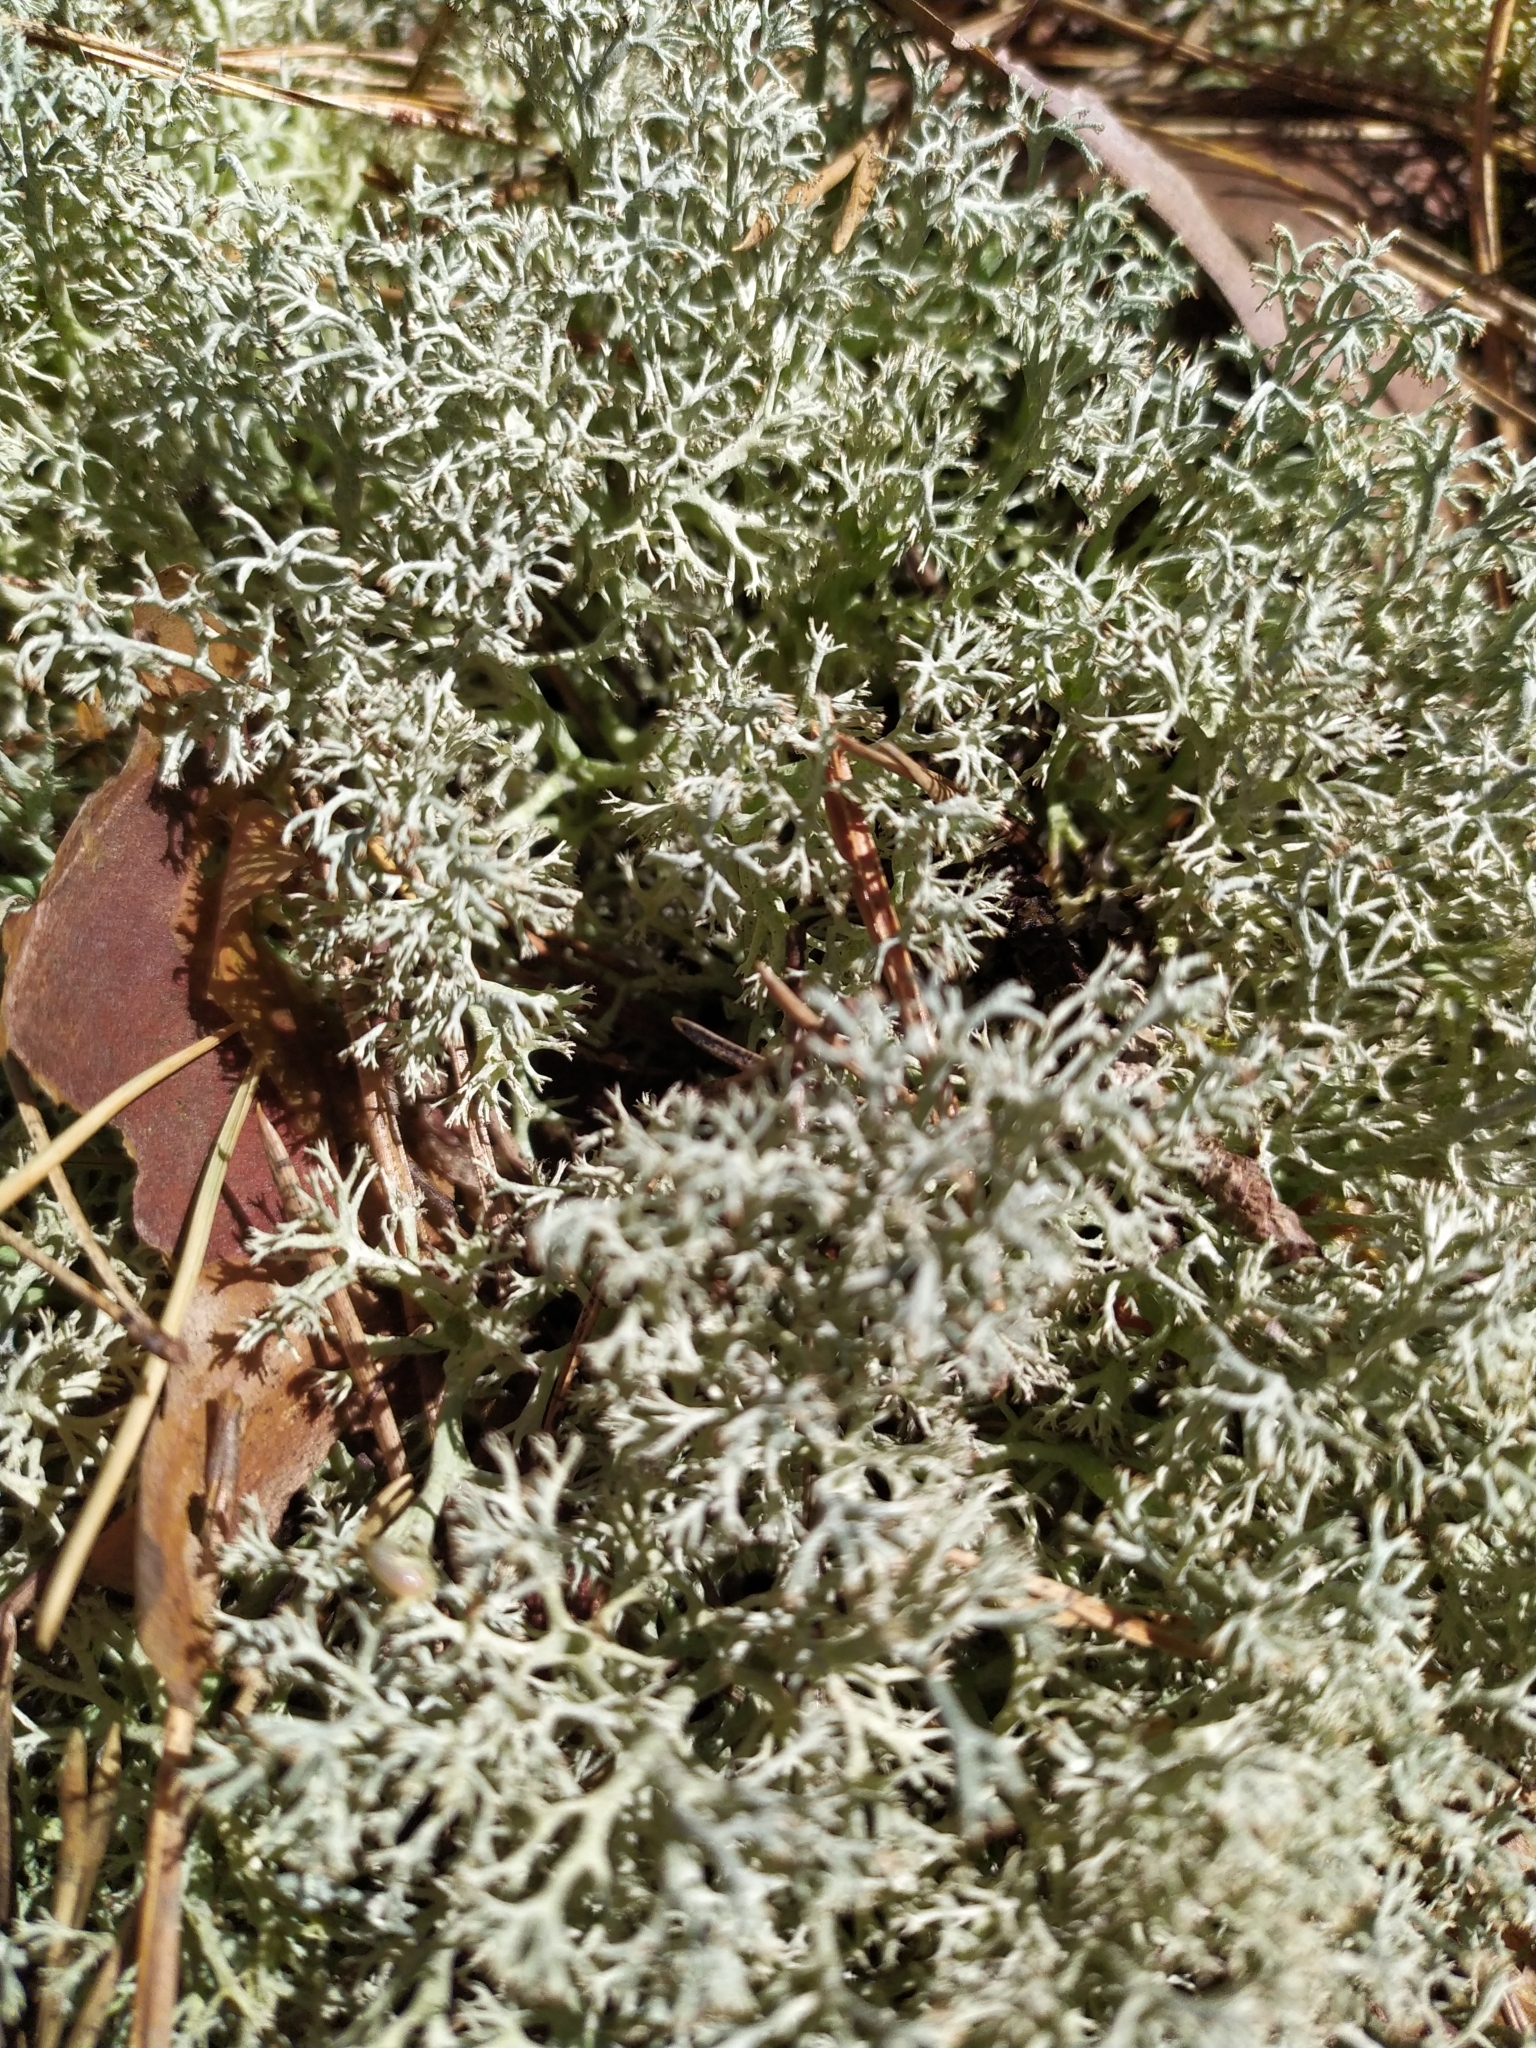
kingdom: Fungi
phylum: Ascomycota
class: Lecanoromycetes
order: Lecanorales
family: Cladoniaceae
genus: Cladonia
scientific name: Cladonia arbuscula
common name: Reindeer lichen
